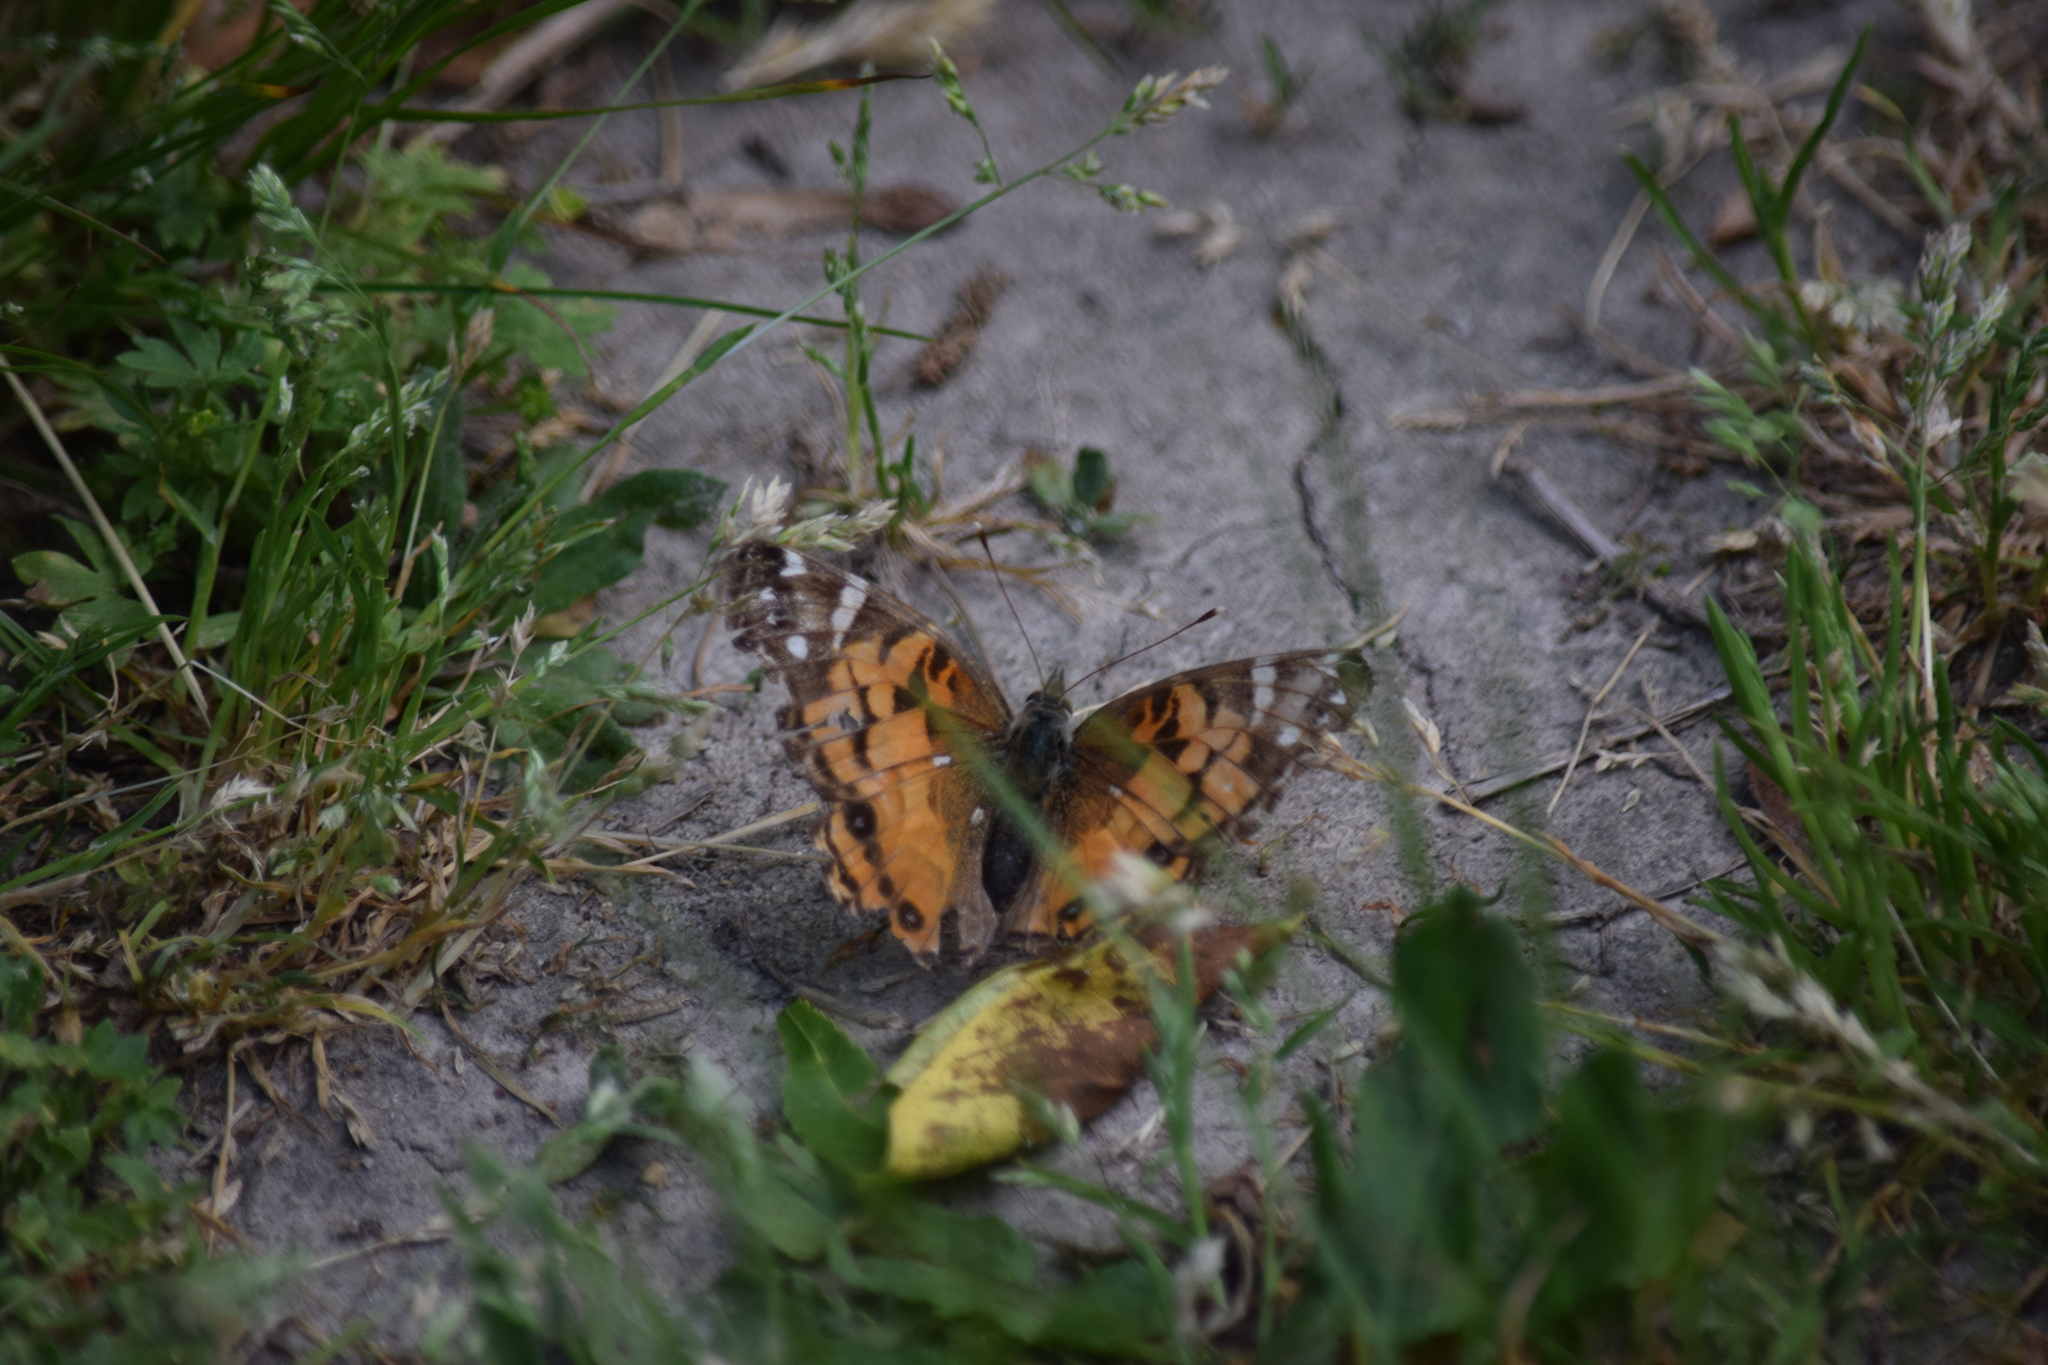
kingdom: Animalia
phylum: Arthropoda
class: Insecta
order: Lepidoptera
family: Nymphalidae
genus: Vanessa
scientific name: Vanessa virginiensis
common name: American lady
